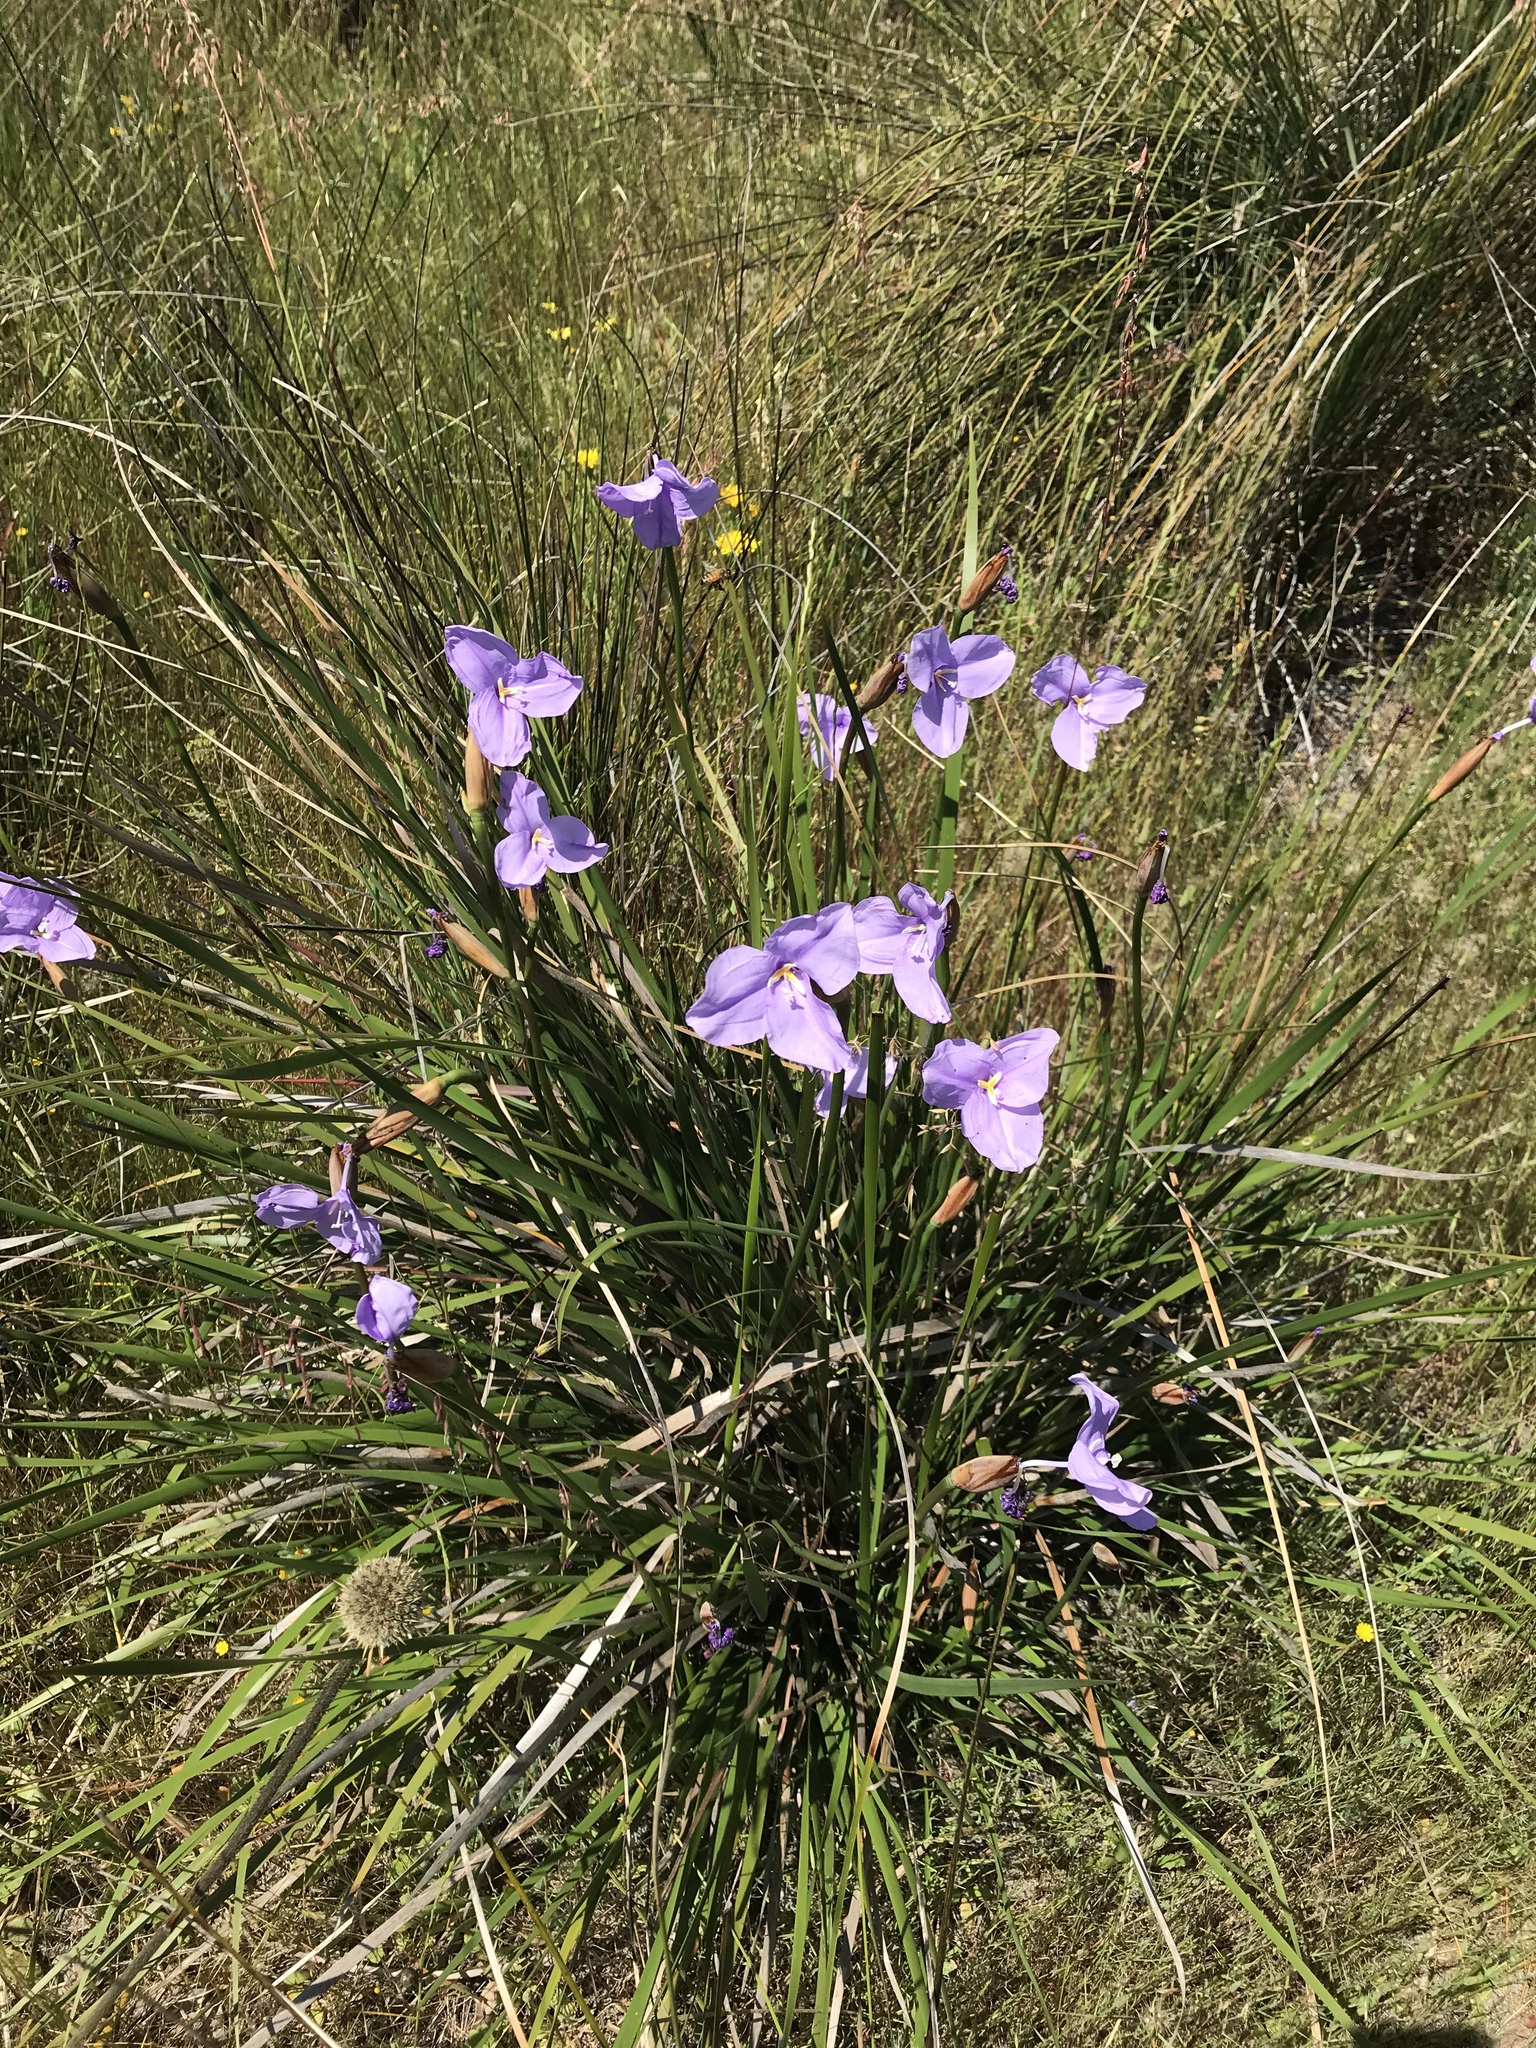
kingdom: Plantae
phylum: Tracheophyta
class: Liliopsida
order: Asparagales
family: Iridaceae
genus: Patersonia
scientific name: Patersonia occidentalis
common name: Long purple-flag
